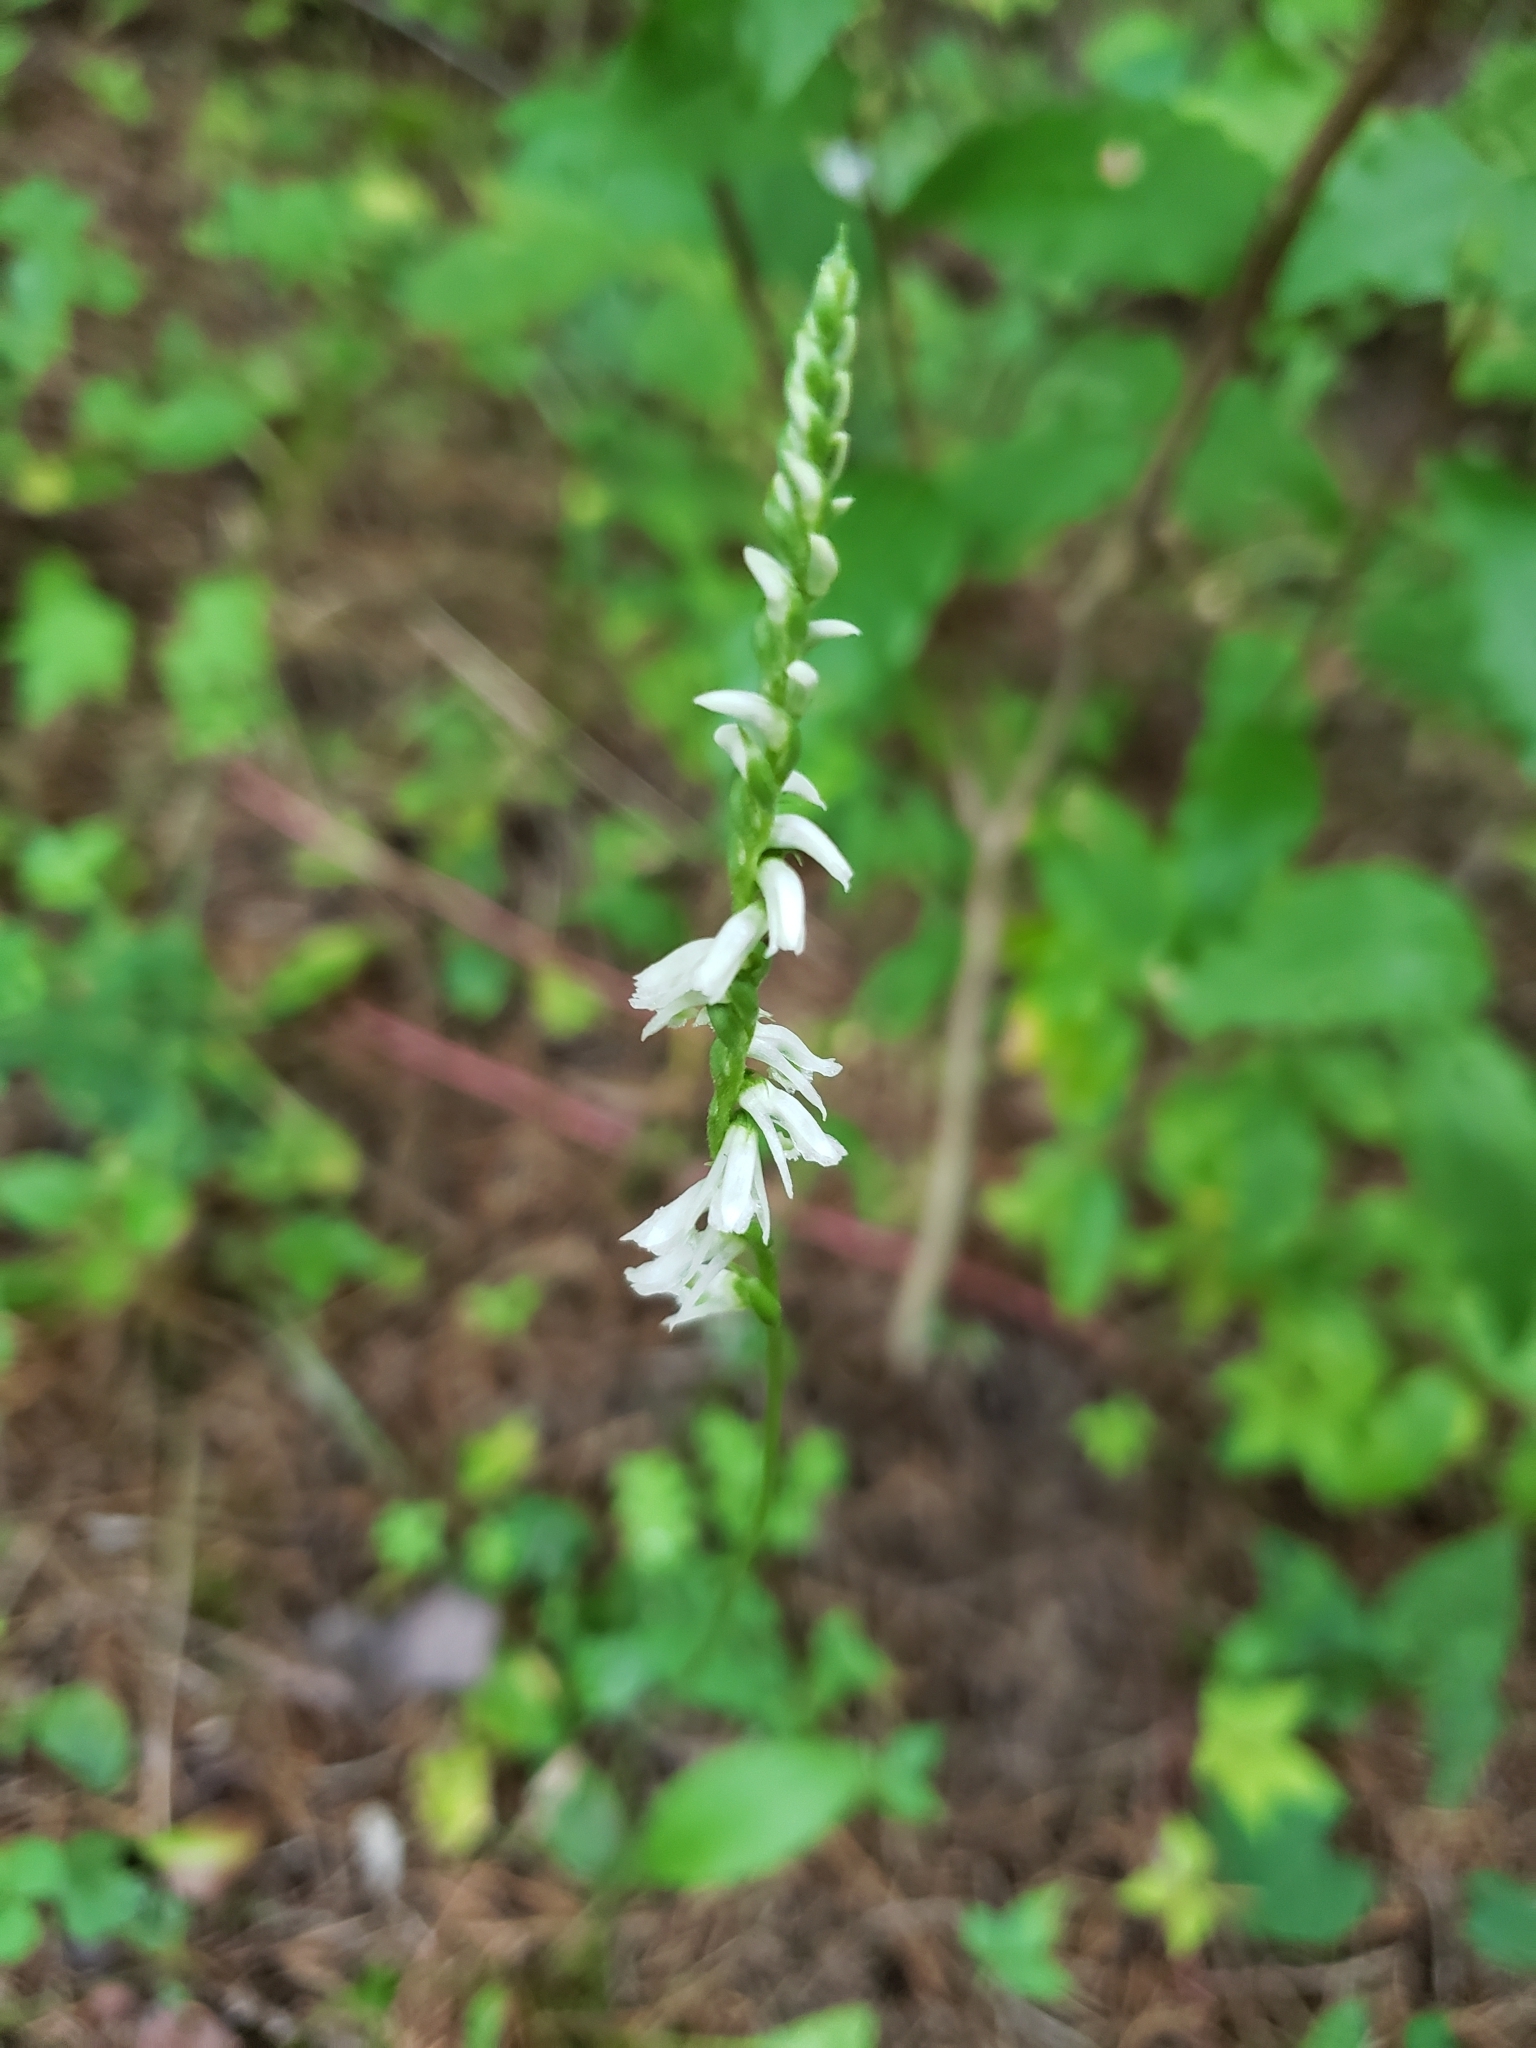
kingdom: Plantae
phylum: Tracheophyta
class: Liliopsida
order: Asparagales
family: Orchidaceae
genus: Spiranthes
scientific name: Spiranthes lacera
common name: Northern slender ladies'-tresses
